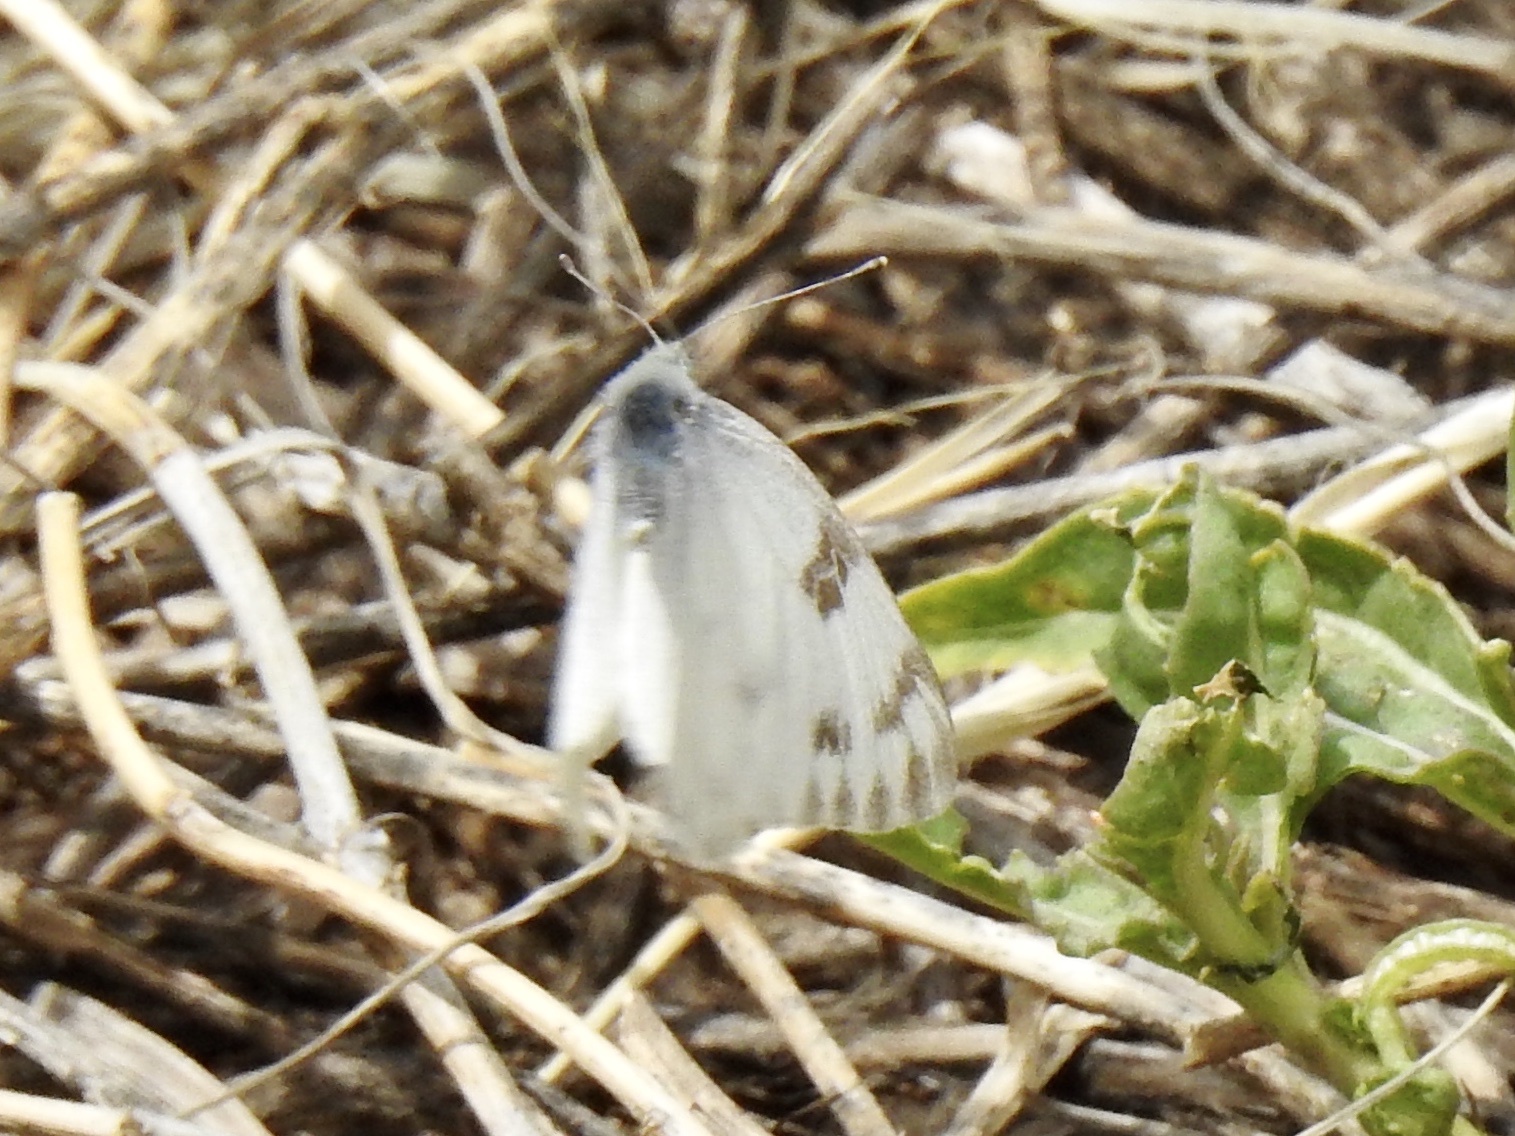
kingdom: Animalia
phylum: Arthropoda
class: Insecta
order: Lepidoptera
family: Pieridae
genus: Pontia
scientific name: Pontia protodice
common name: Checkered white
